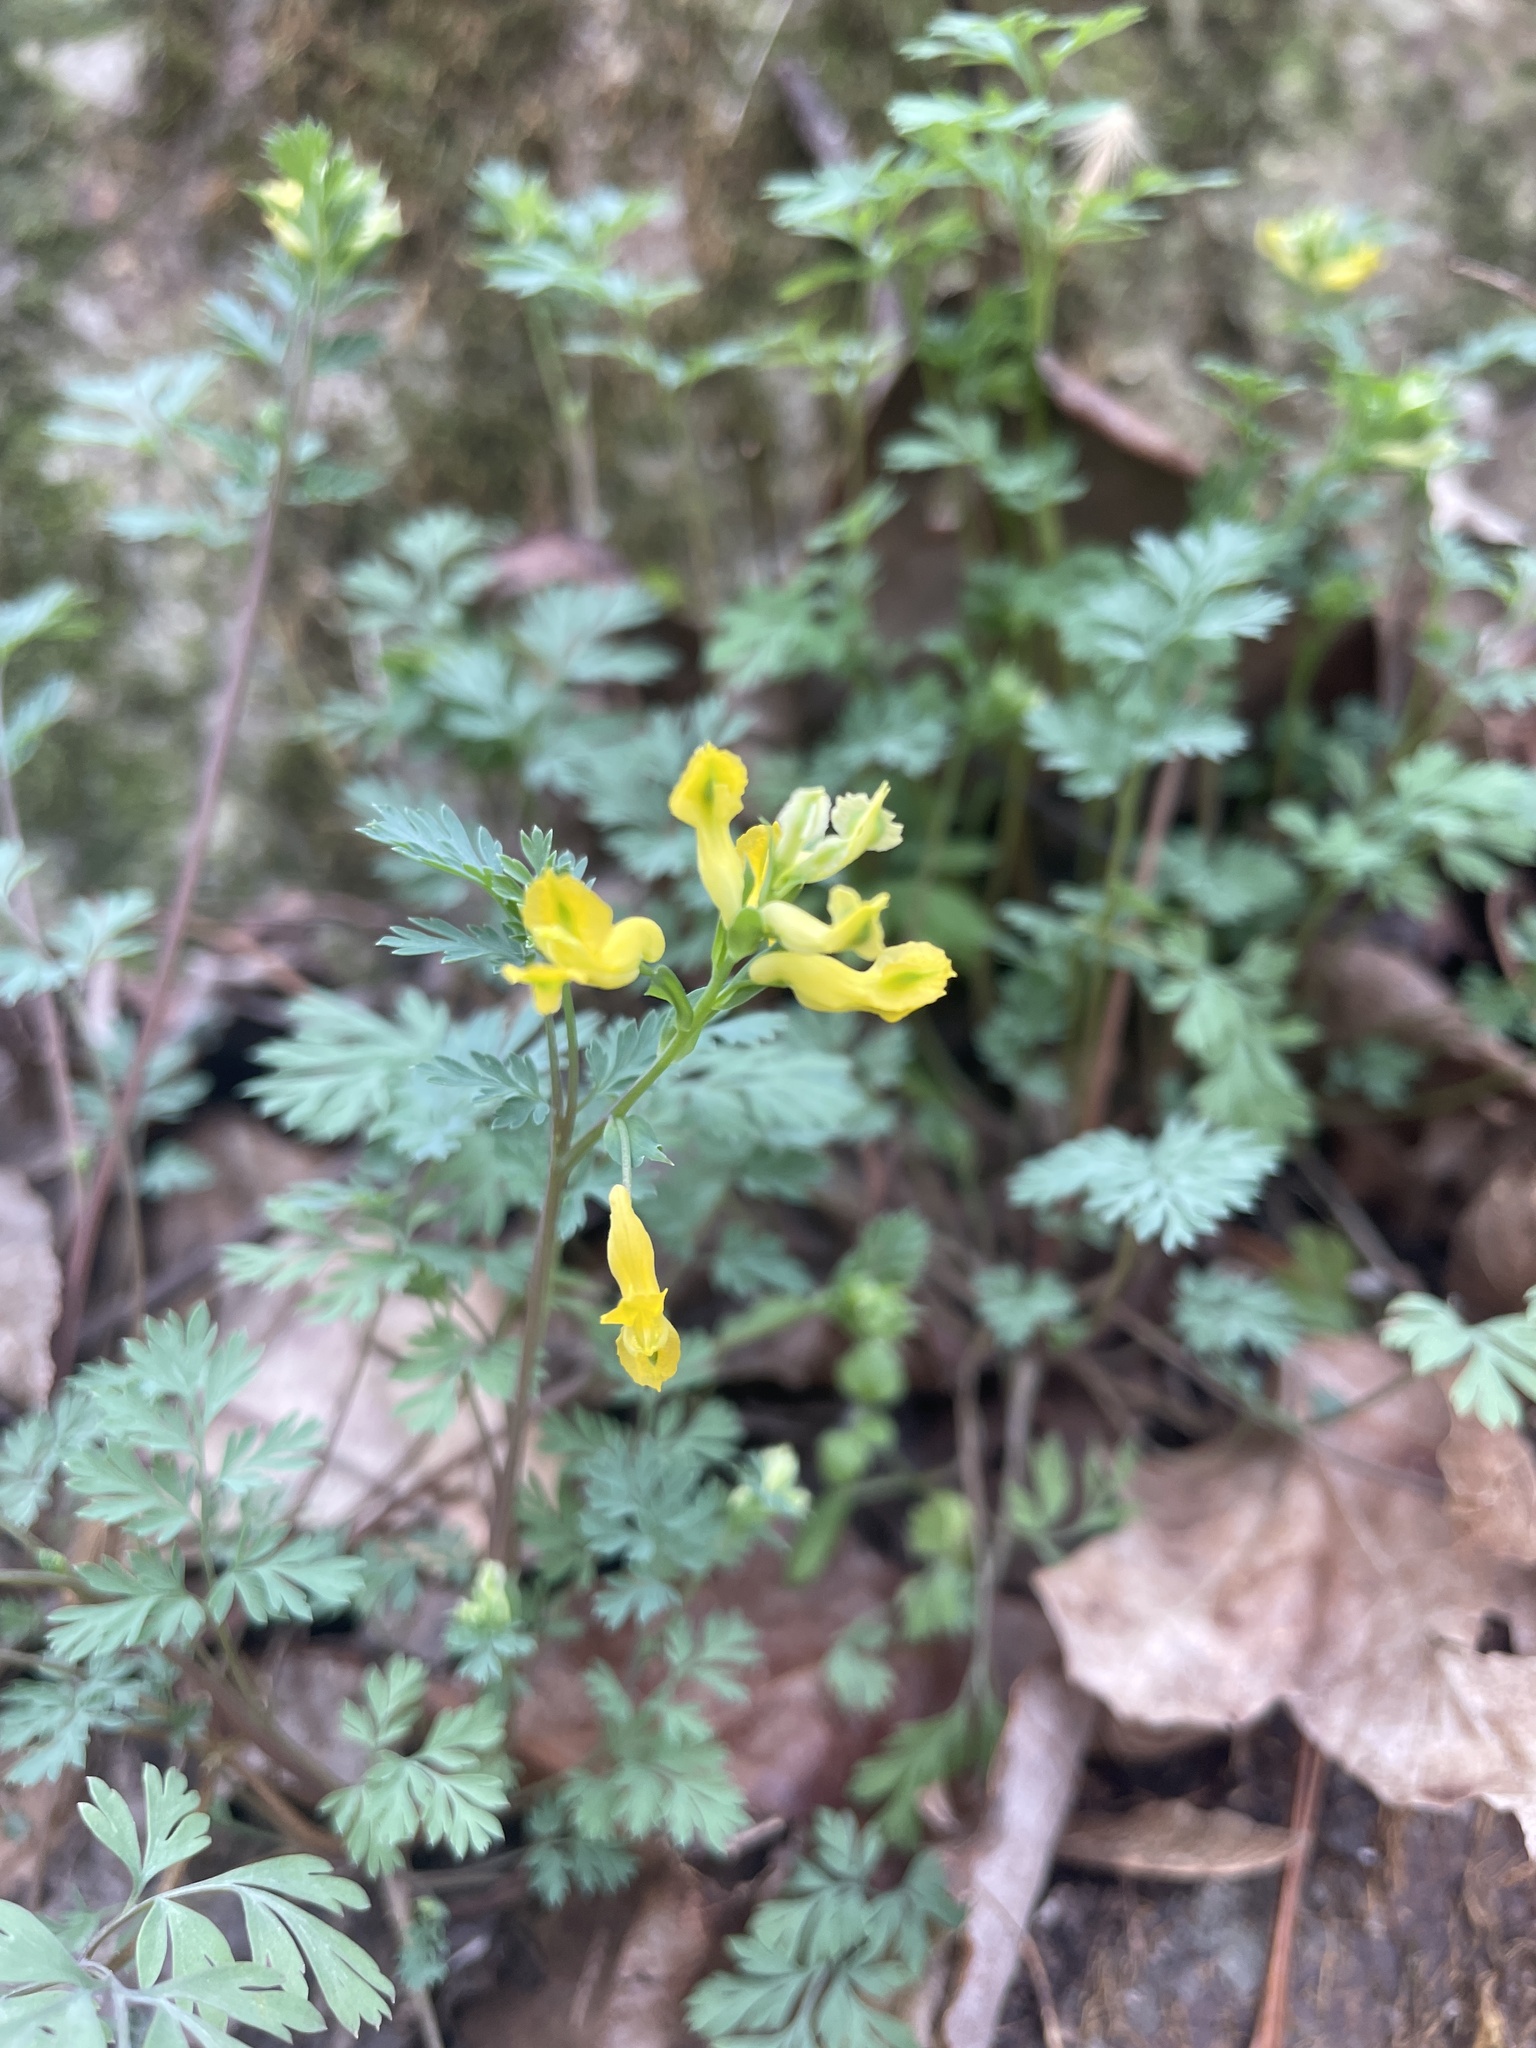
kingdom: Plantae
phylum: Tracheophyta
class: Magnoliopsida
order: Ranunculales
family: Papaveraceae
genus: Corydalis
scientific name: Corydalis flavula
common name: Yellow corydalis
